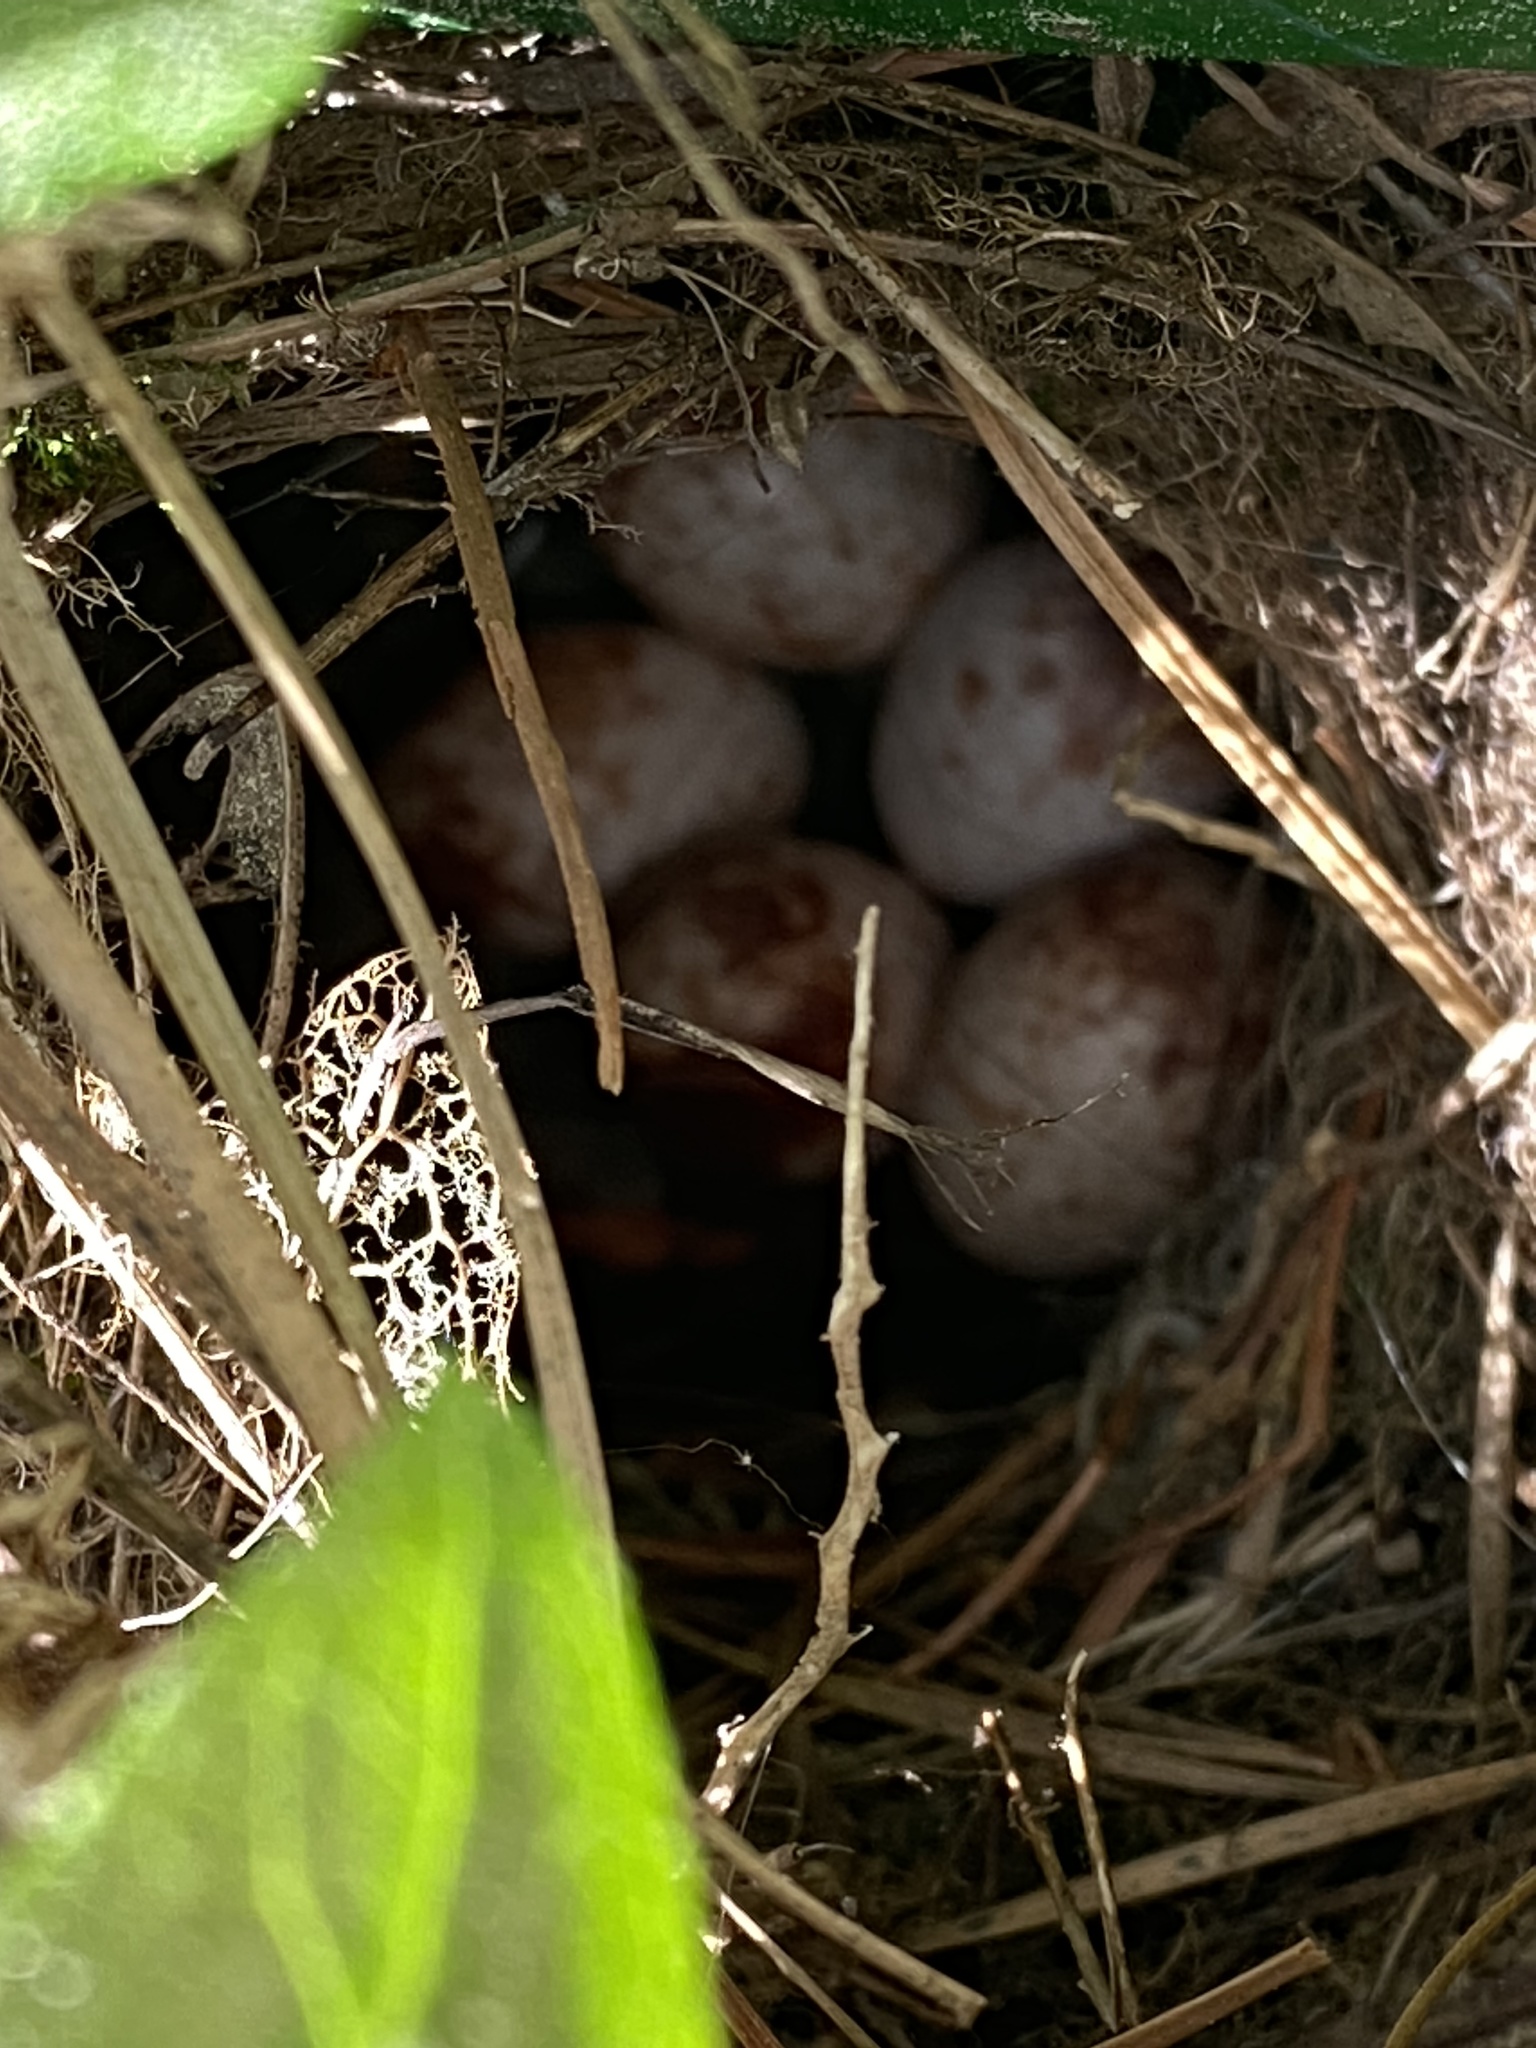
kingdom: Animalia
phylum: Chordata
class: Aves
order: Passeriformes
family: Troglodytidae
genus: Thryothorus
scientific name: Thryothorus ludovicianus
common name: Carolina wren
